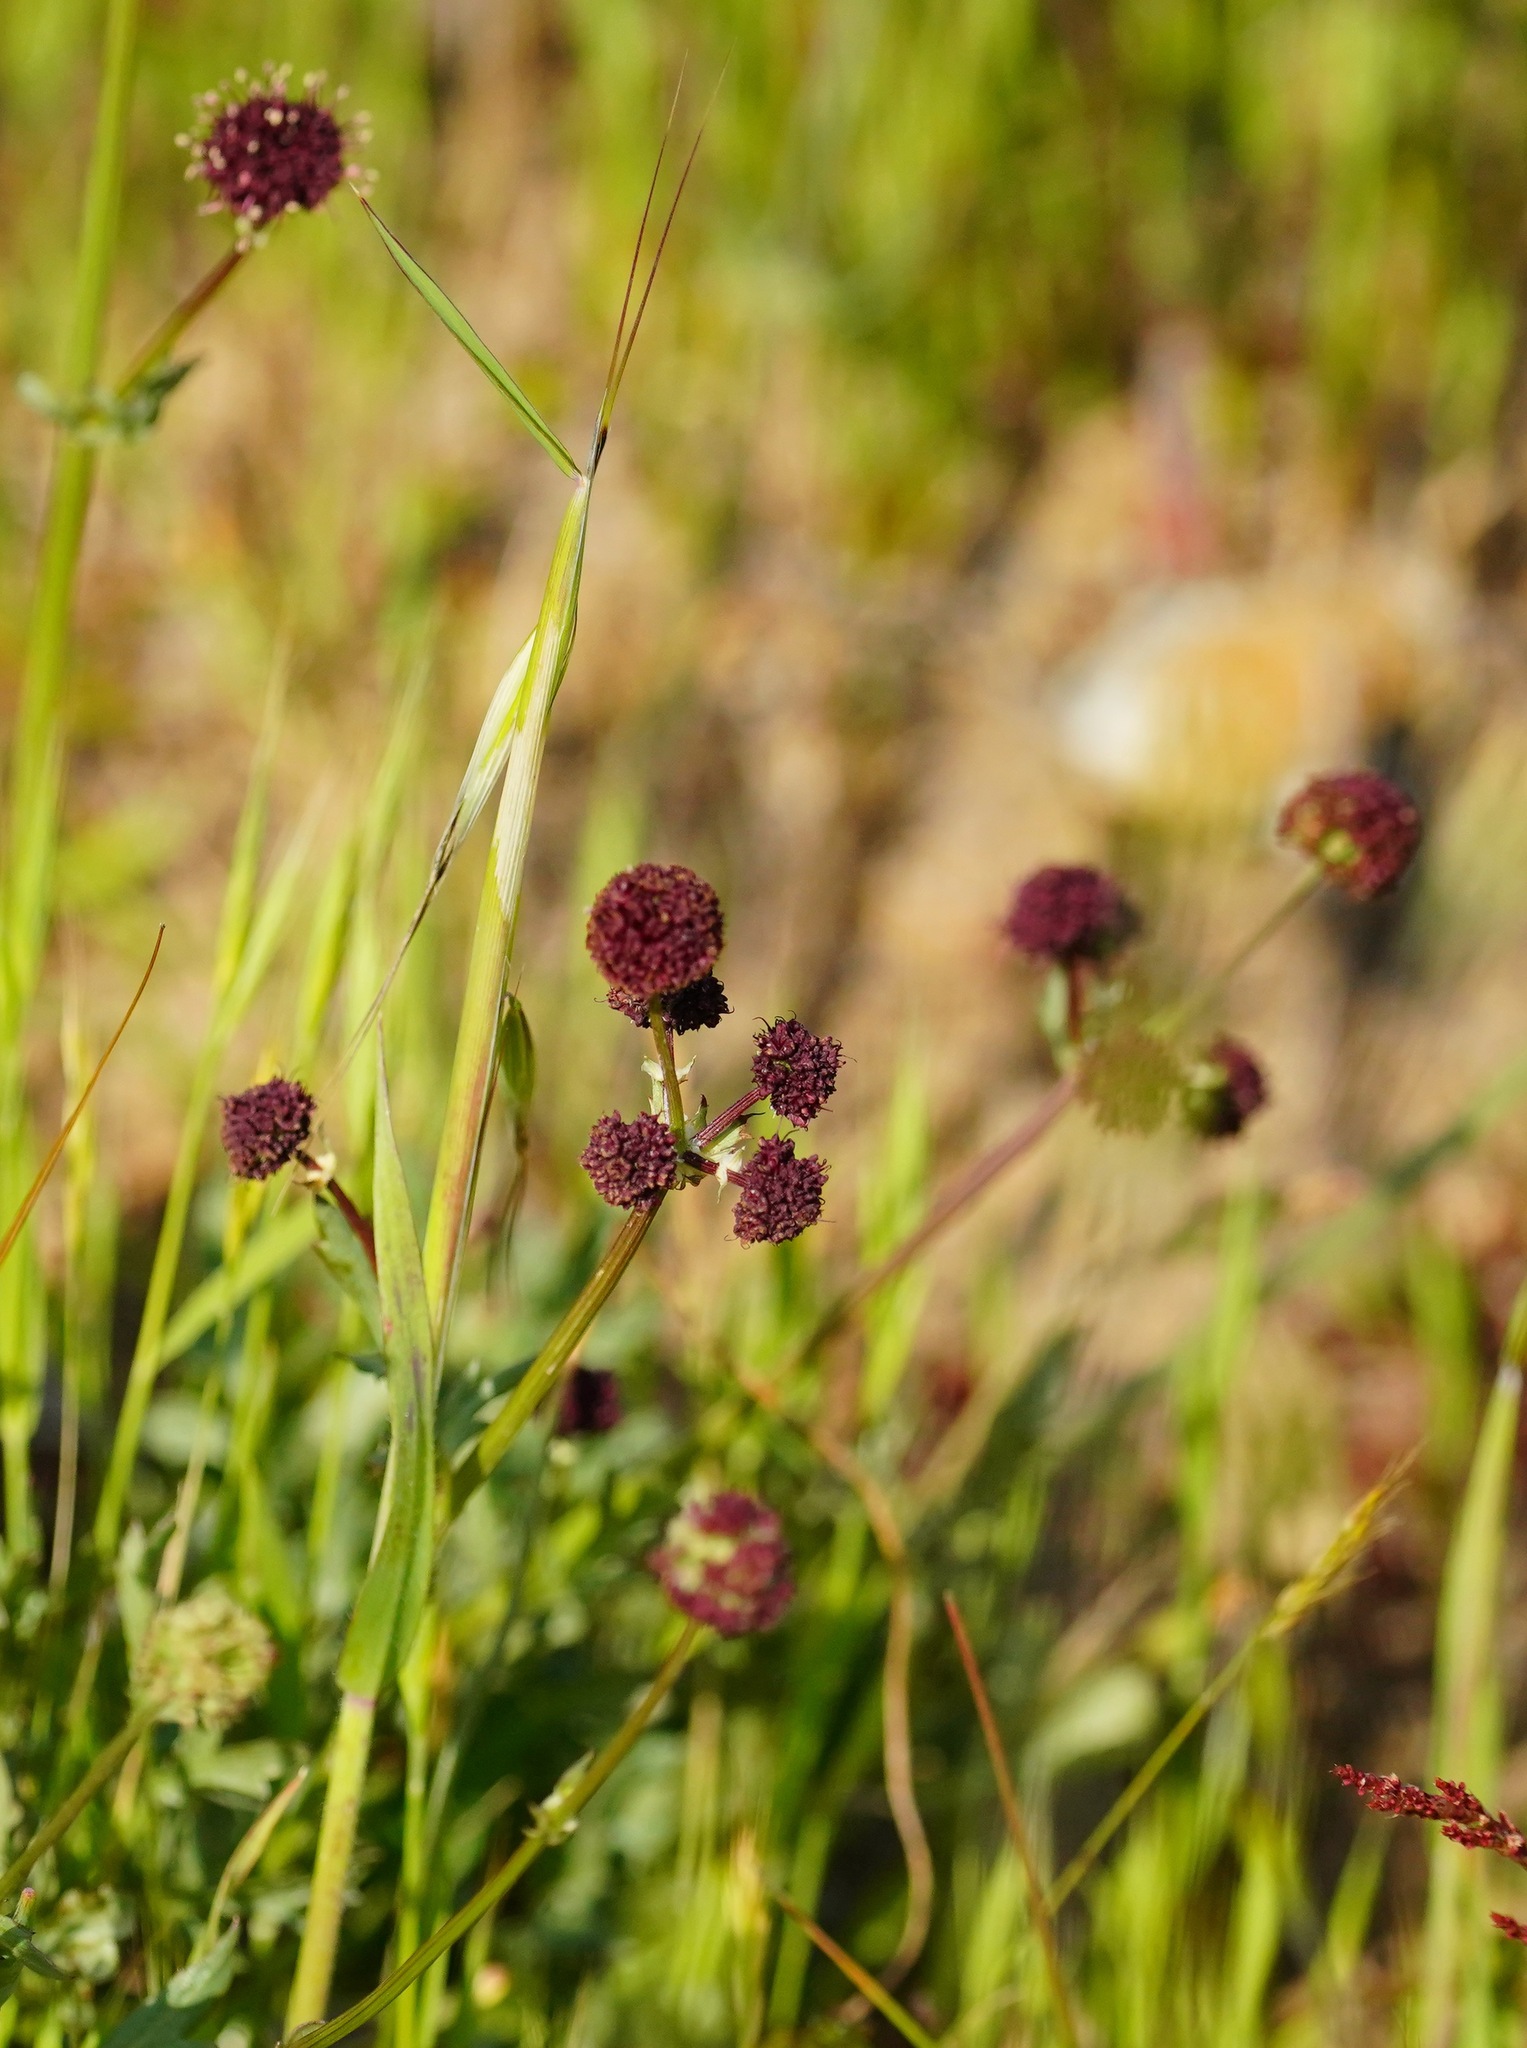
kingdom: Plantae
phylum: Tracheophyta
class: Magnoliopsida
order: Apiales
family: Apiaceae
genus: Sanicula
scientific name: Sanicula bipinnatifida
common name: Shoe-buttons
